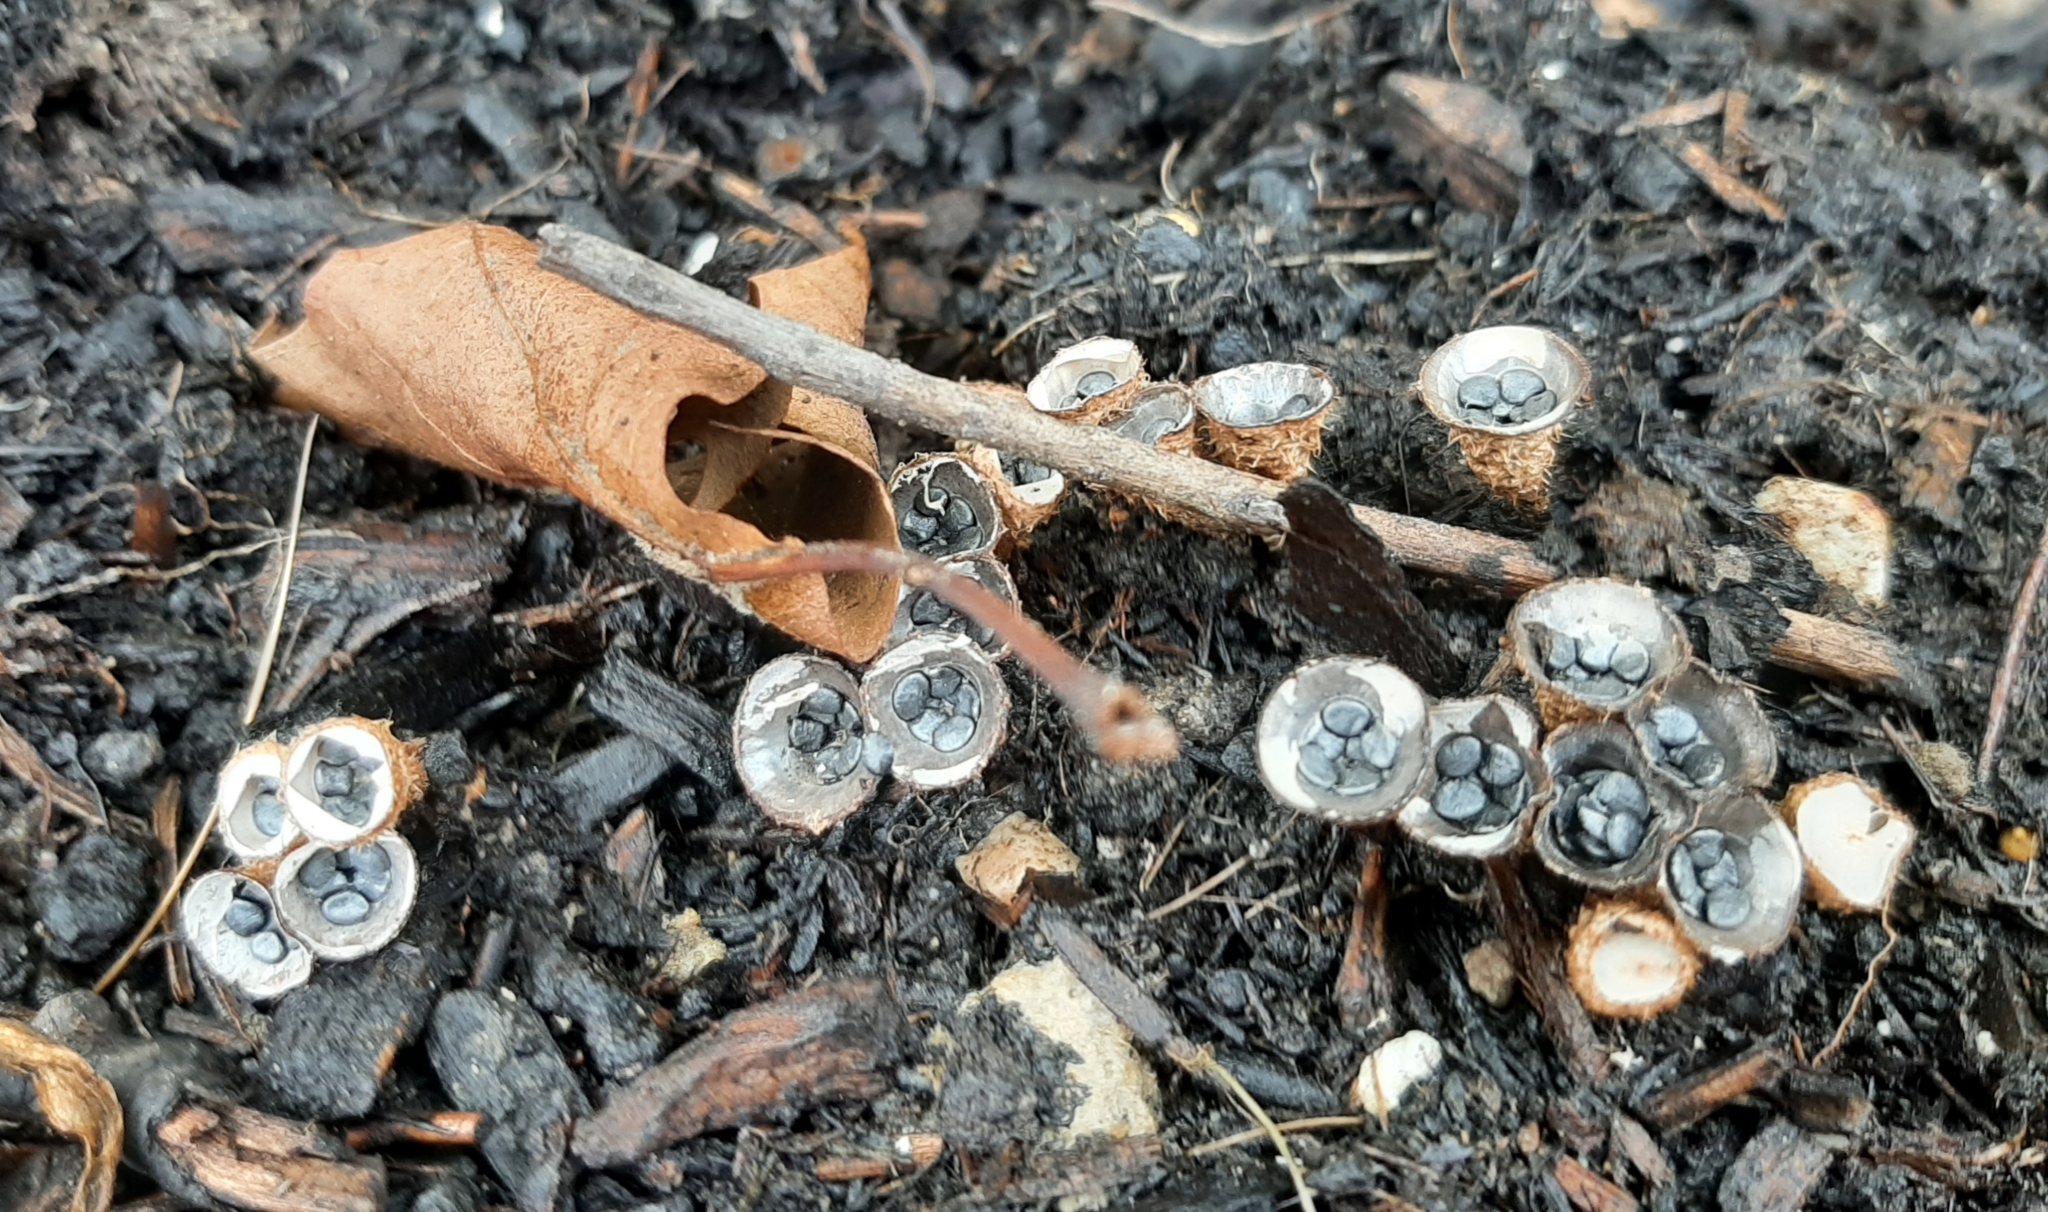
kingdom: Fungi
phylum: Basidiomycota
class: Agaricomycetes
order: Agaricales
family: Agaricaceae
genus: Cyathus
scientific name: Cyathus stercoreus
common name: Dung bird's nest
